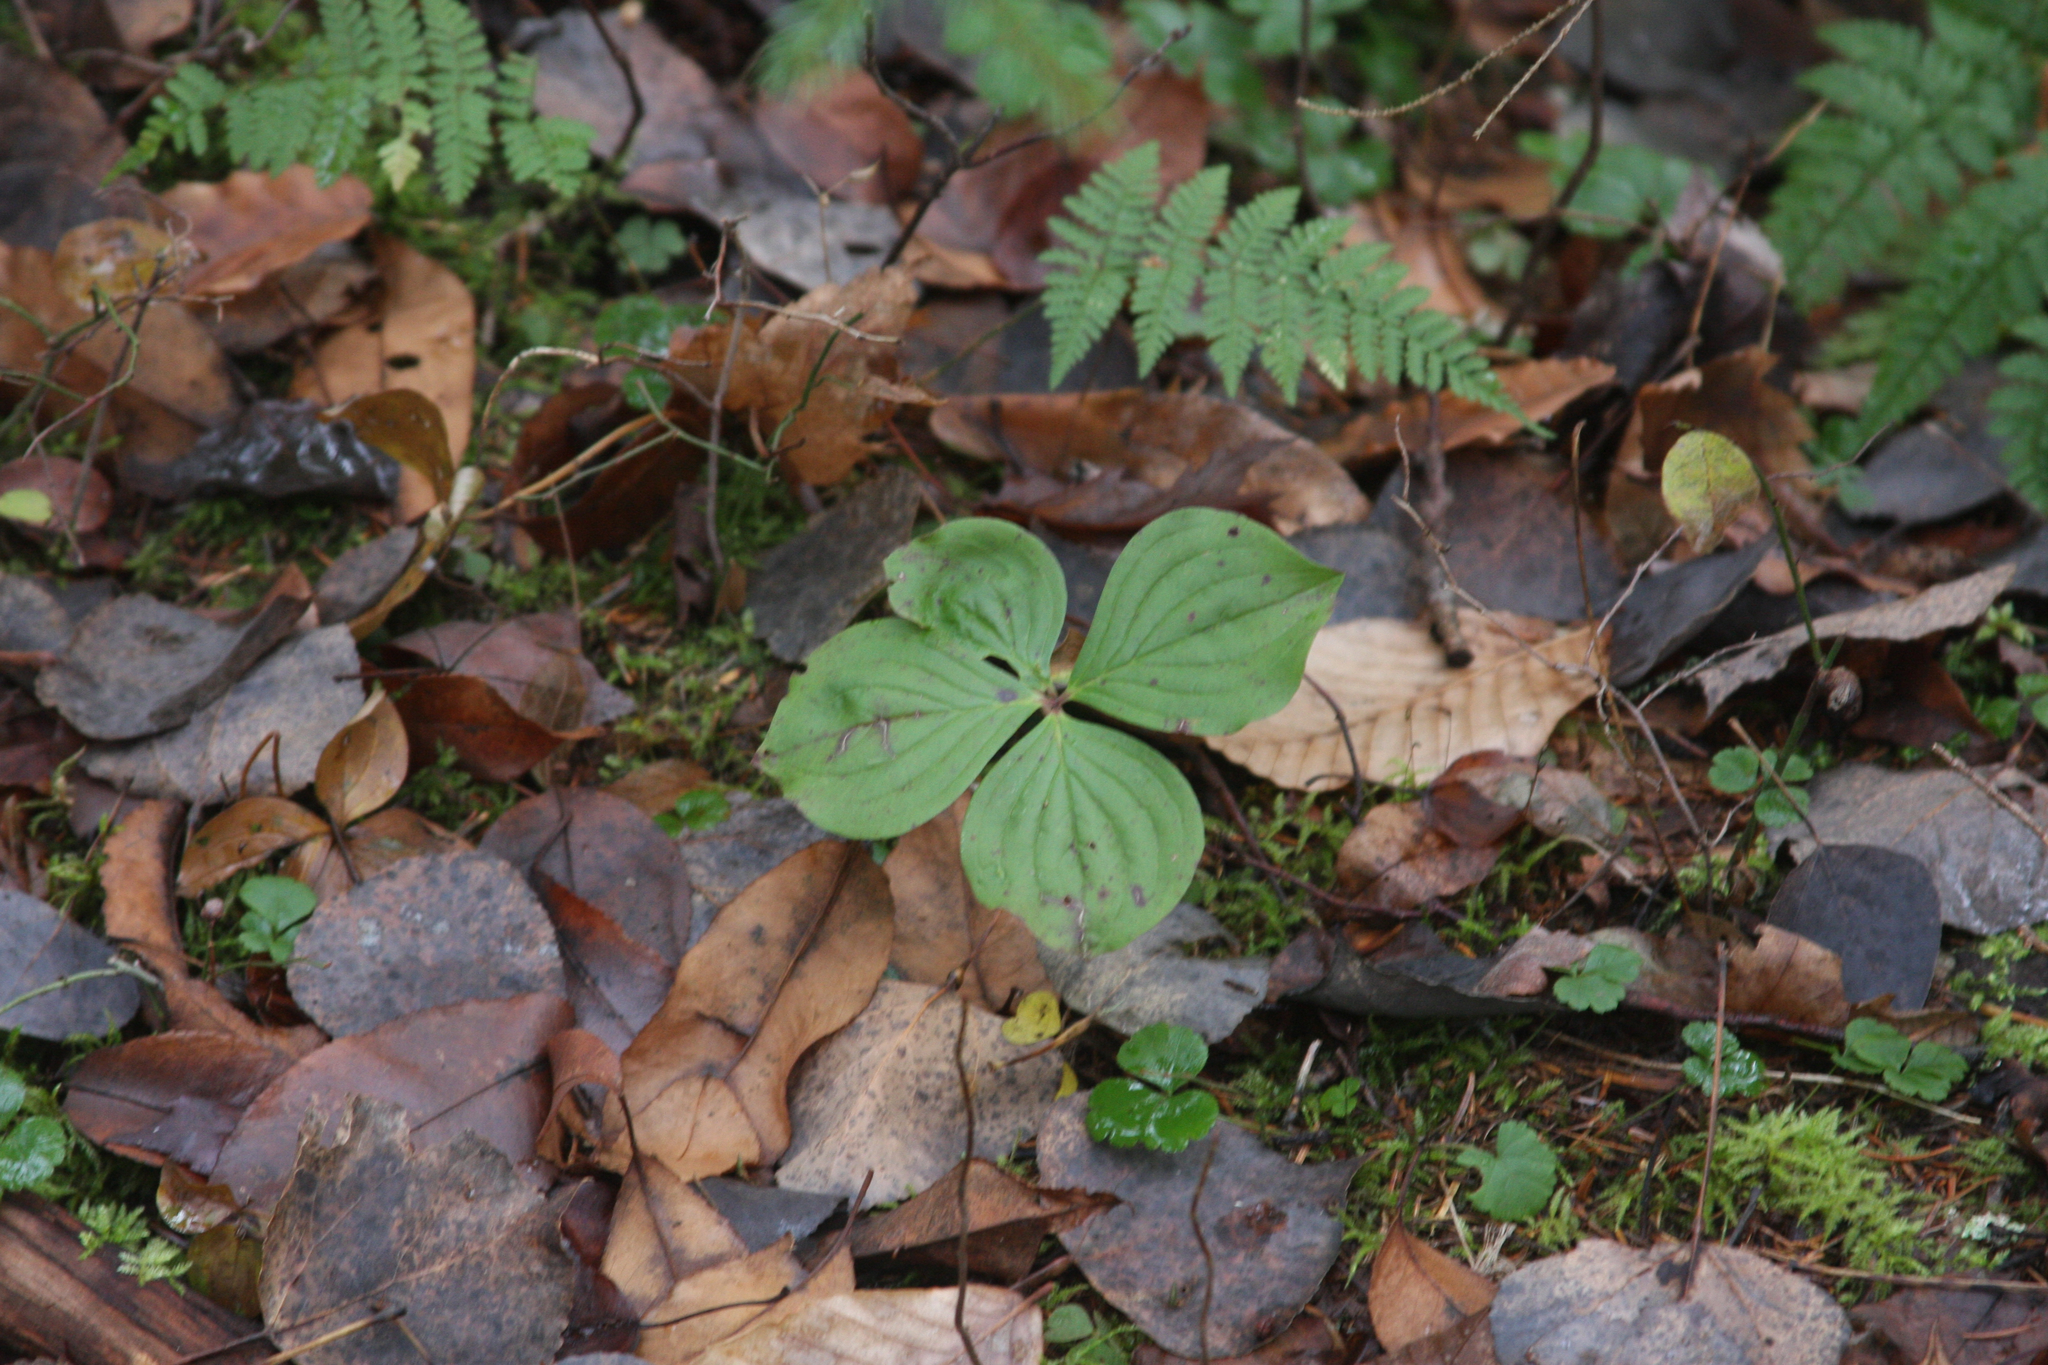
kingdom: Plantae
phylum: Tracheophyta
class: Magnoliopsida
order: Cornales
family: Cornaceae
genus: Cornus
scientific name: Cornus canadensis
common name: Creeping dogwood
